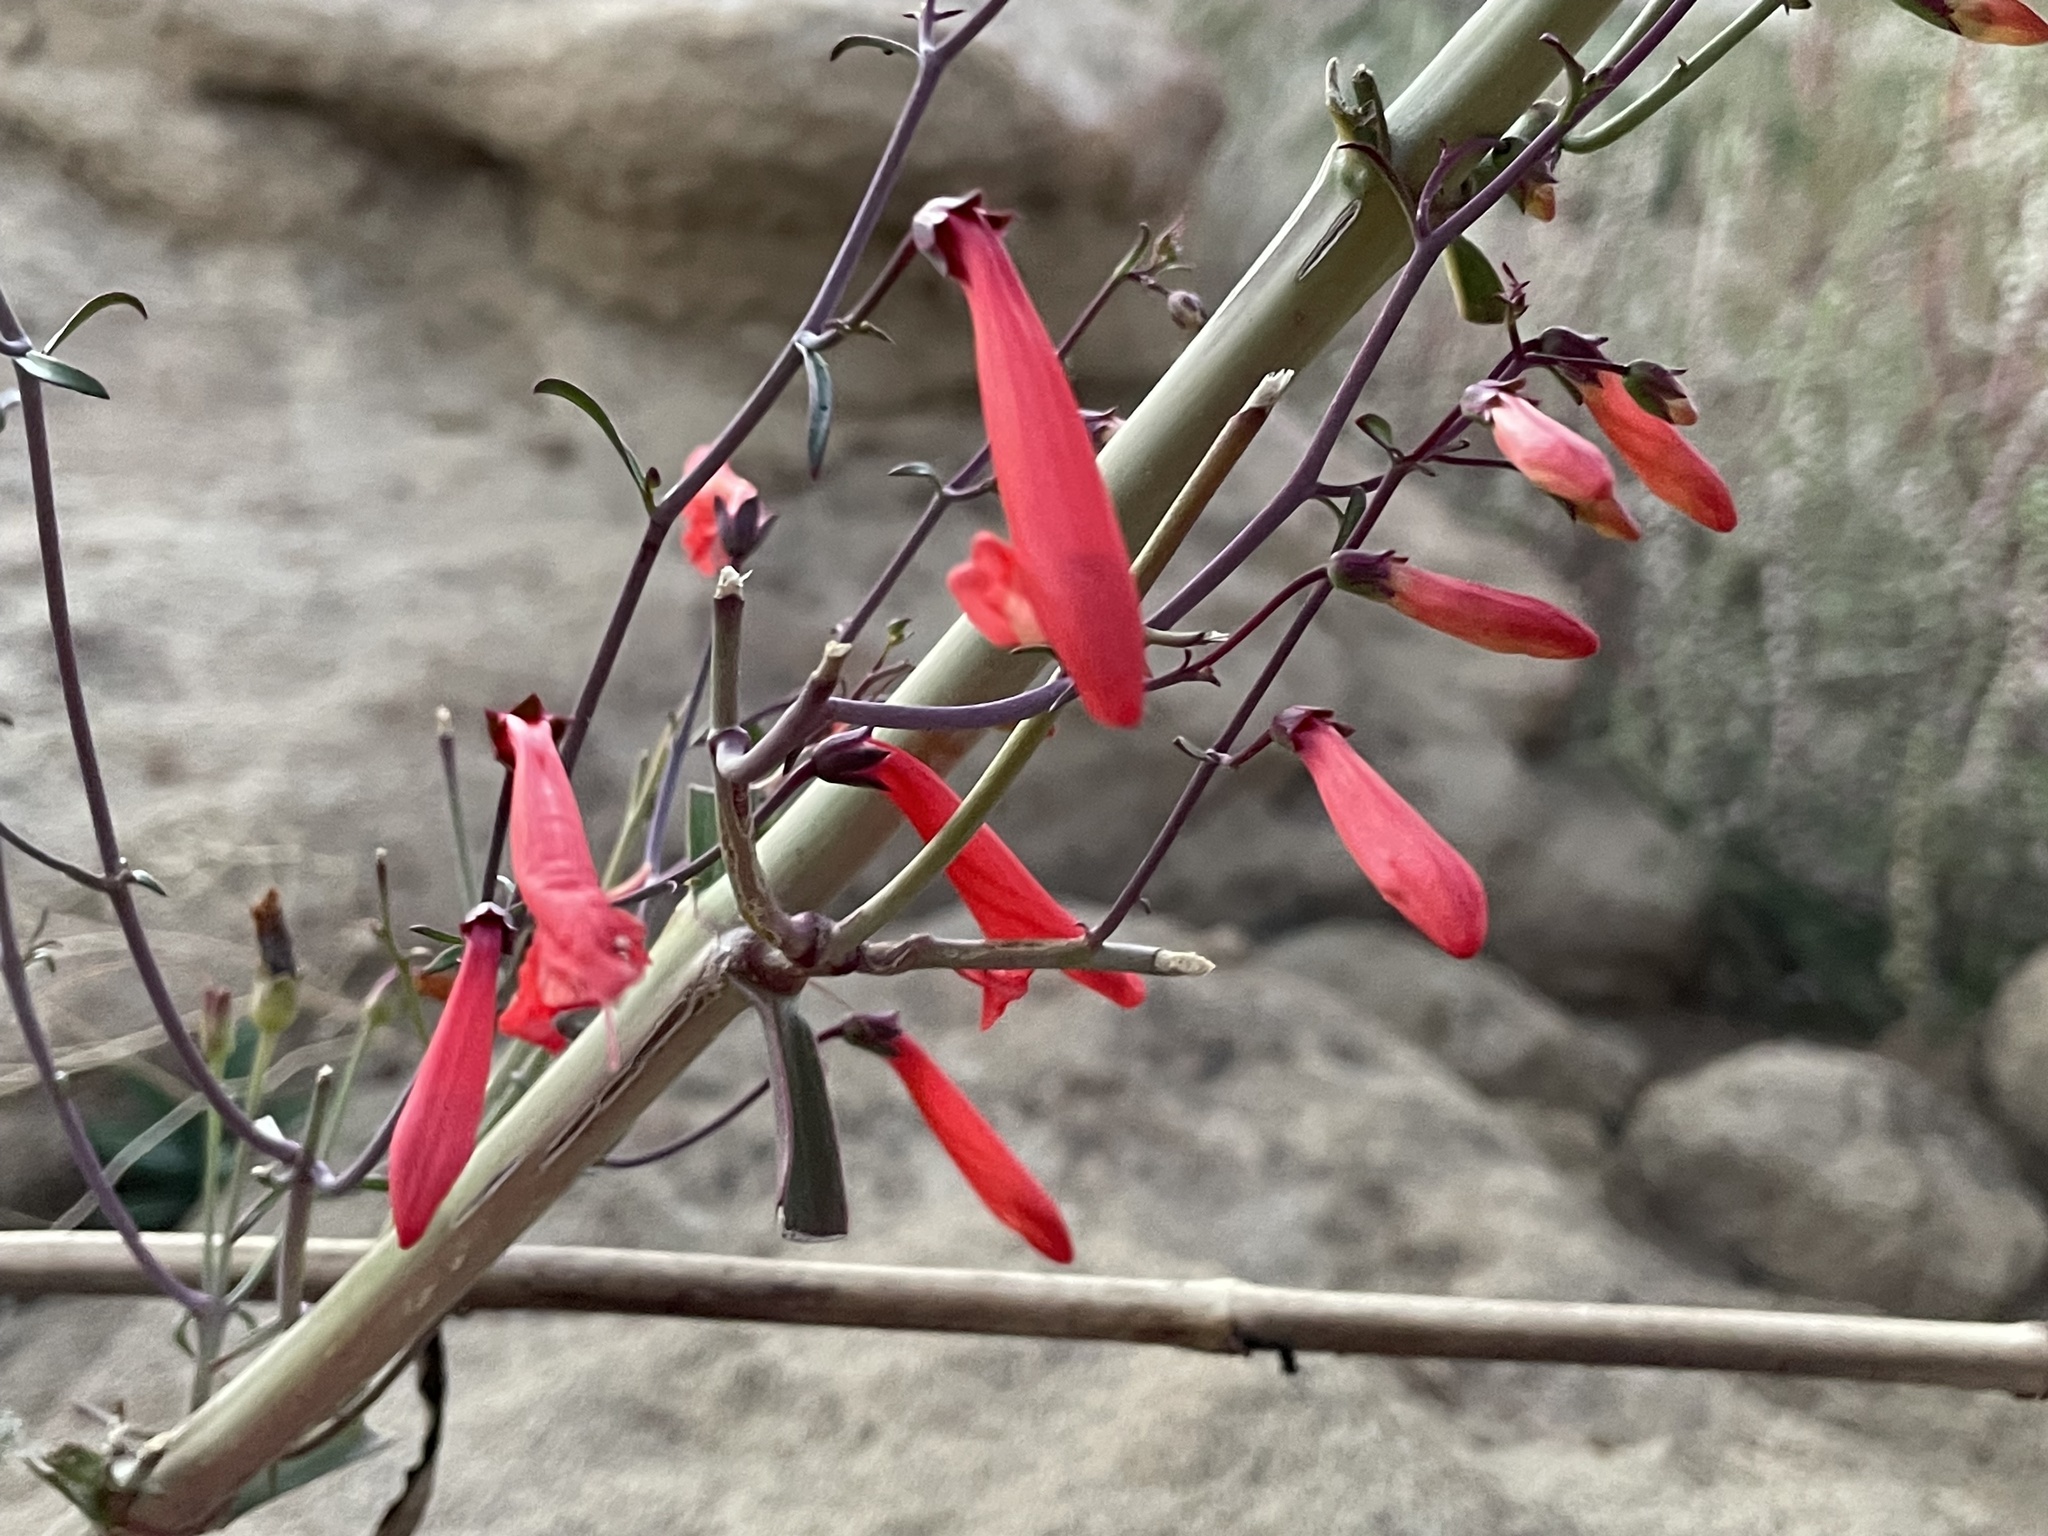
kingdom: Plantae
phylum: Tracheophyta
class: Magnoliopsida
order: Lamiales
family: Plantaginaceae
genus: Penstemon
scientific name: Penstemon barbatus
